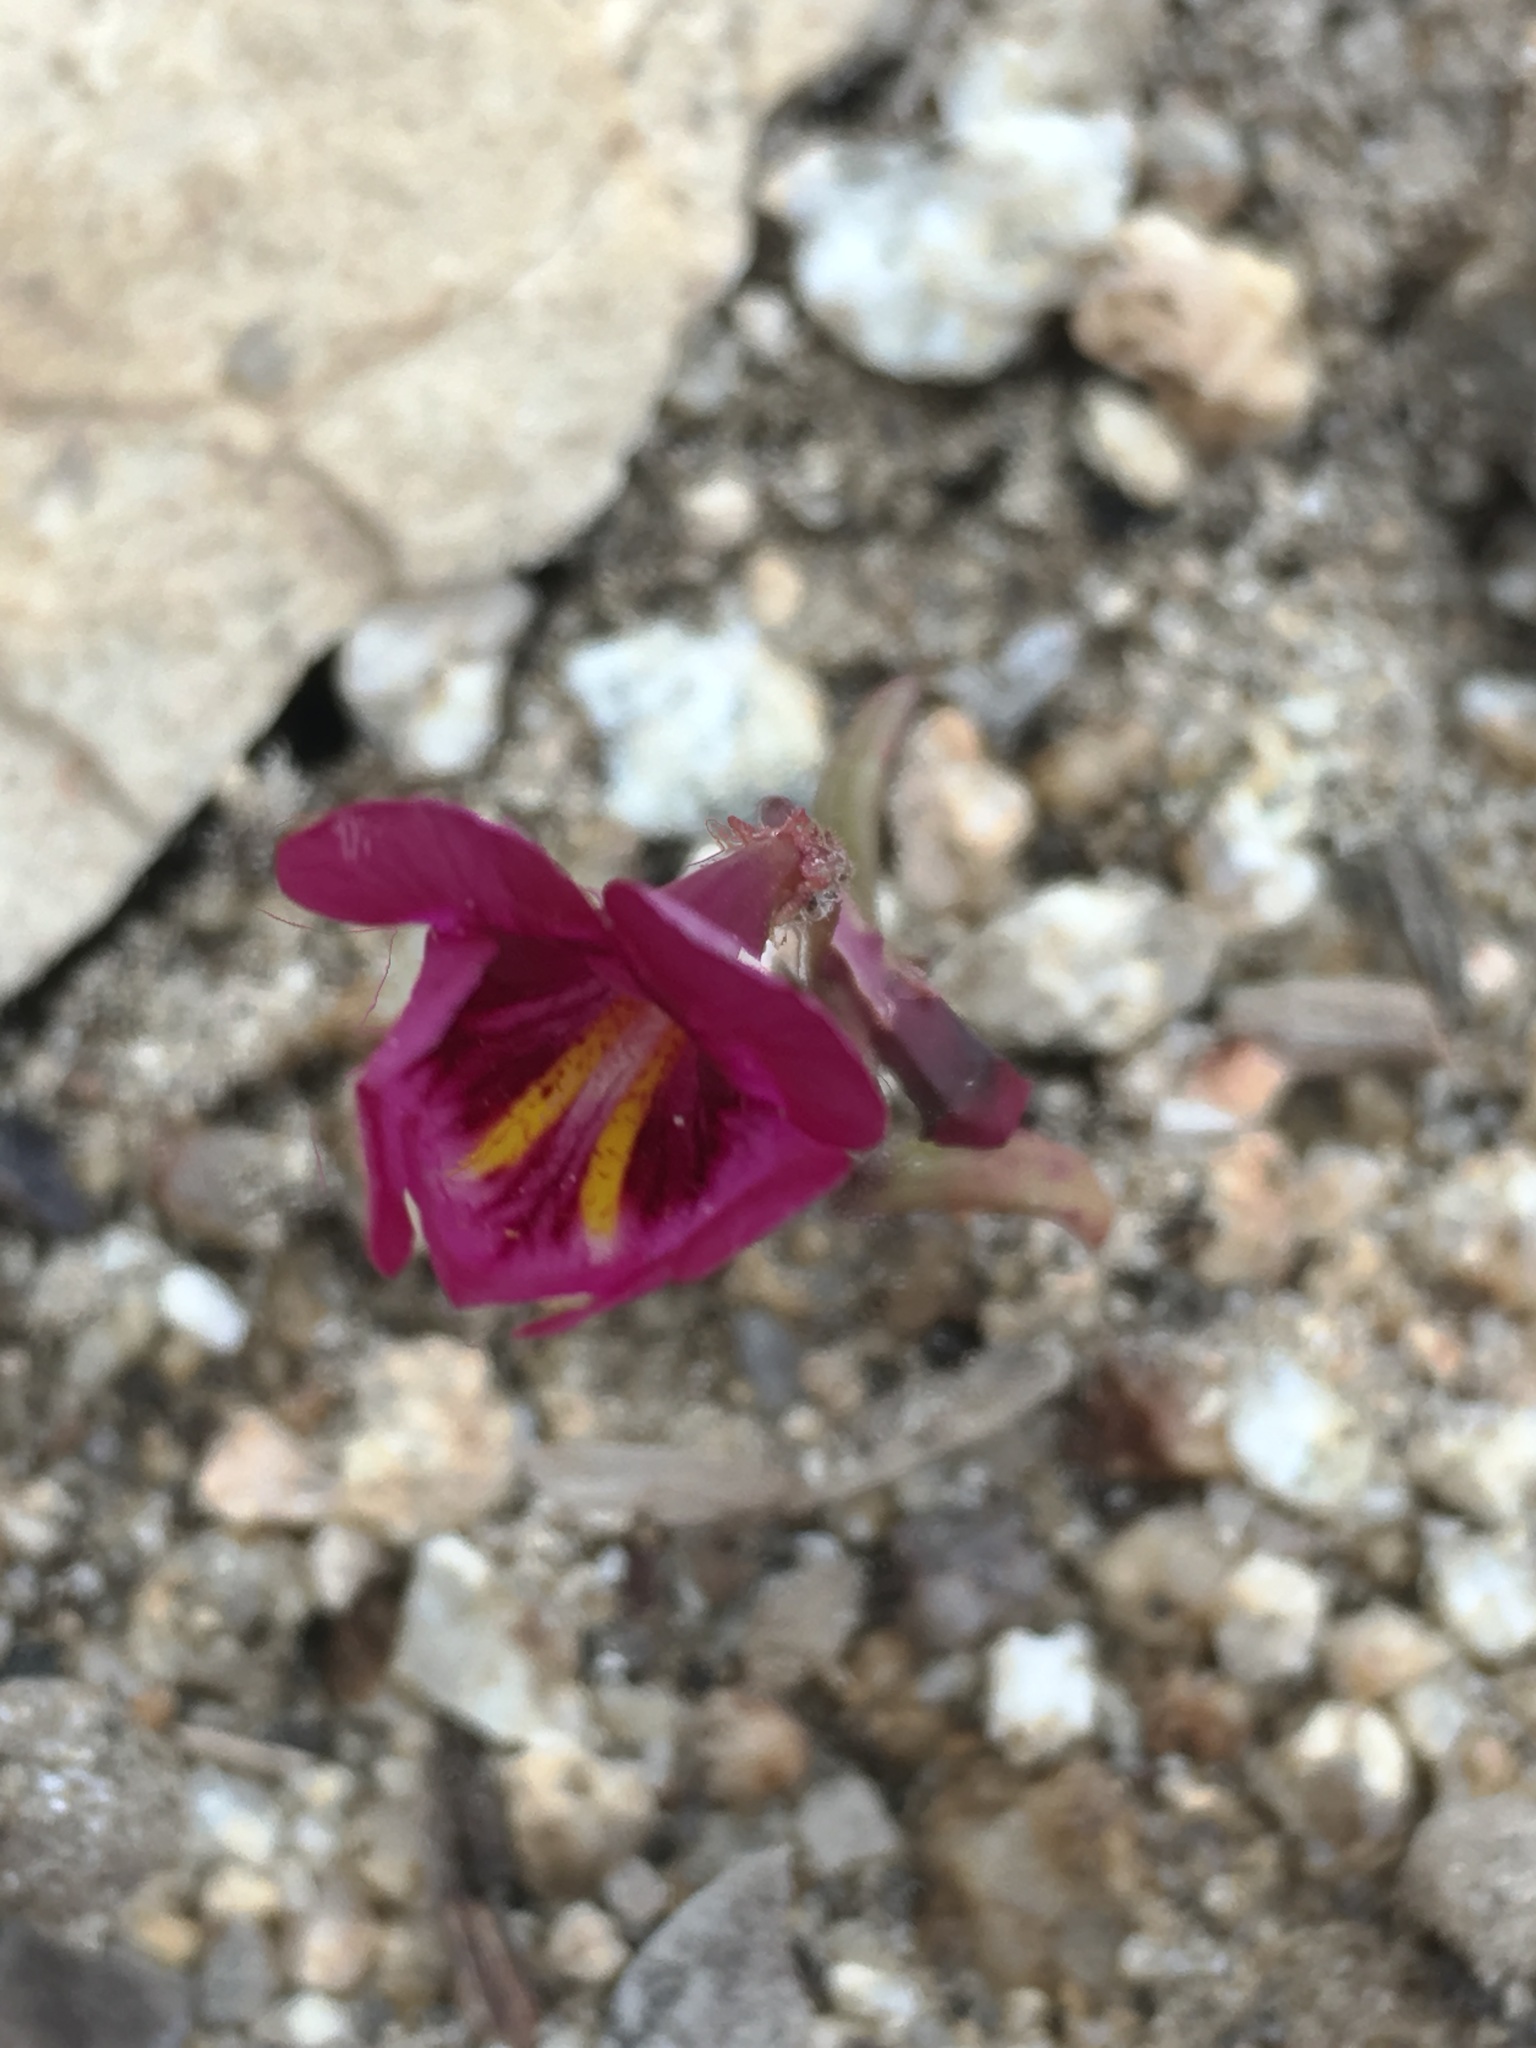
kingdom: Plantae
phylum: Tracheophyta
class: Magnoliopsida
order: Lamiales
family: Phrymaceae
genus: Erythranthe
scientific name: Erythranthe palmeri
